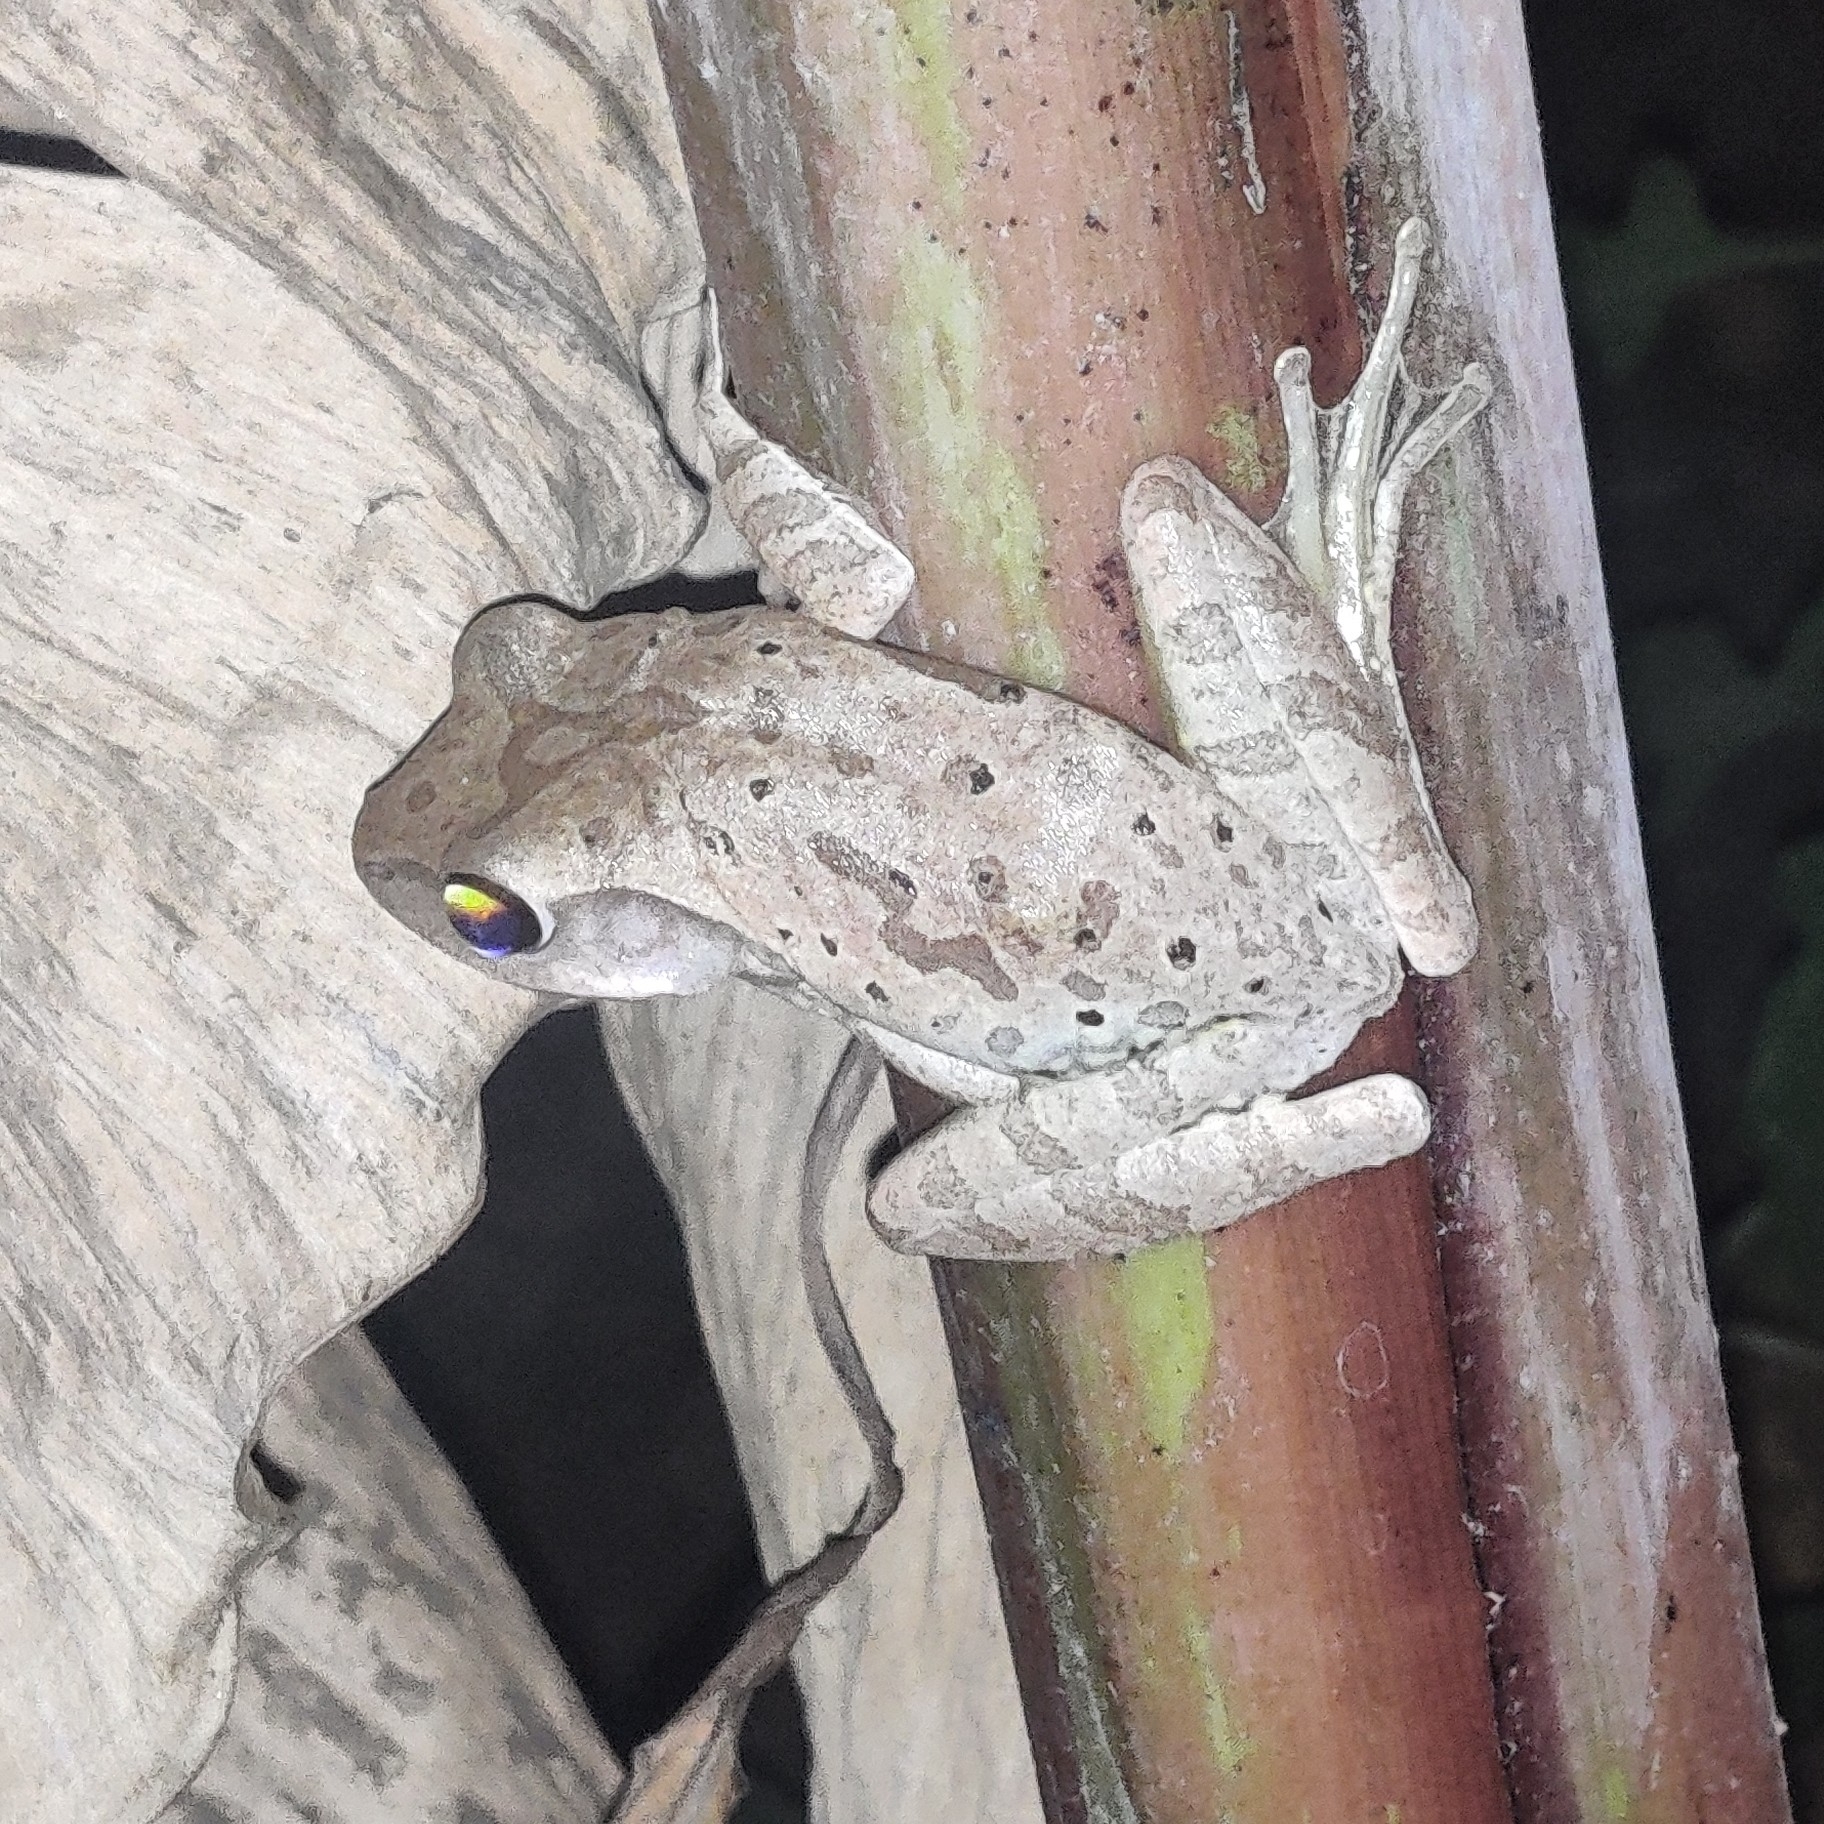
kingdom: Animalia
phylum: Chordata
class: Amphibia
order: Anura
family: Rhacophoridae
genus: Polypedates
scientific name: Polypedates maculatus
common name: Himalayan tree frog
